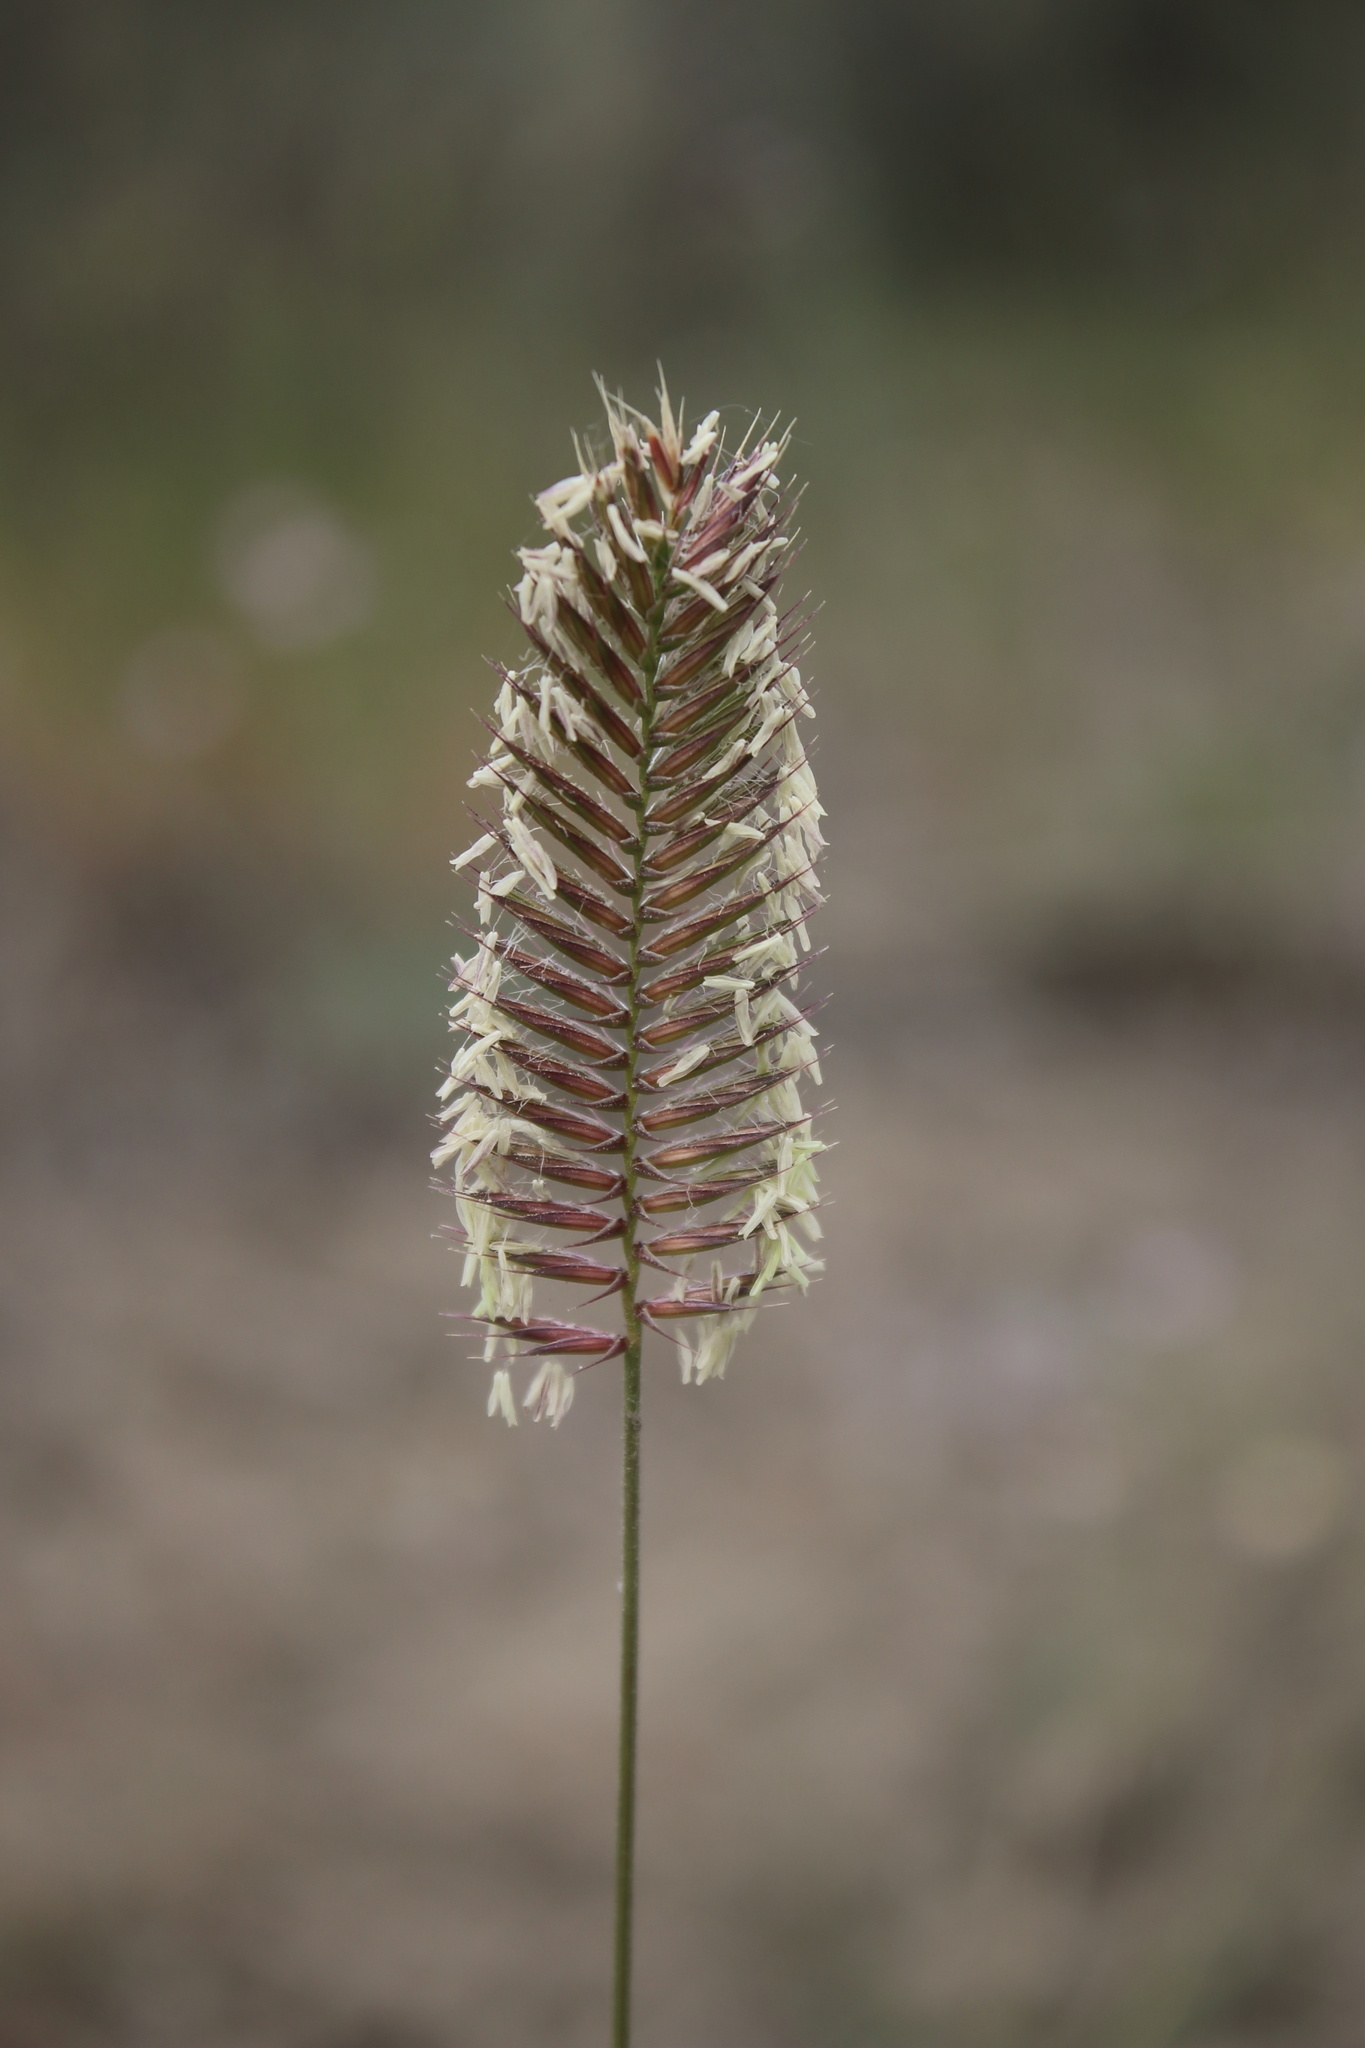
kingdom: Plantae
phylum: Tracheophyta
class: Liliopsida
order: Poales
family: Poaceae
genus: Agropyron
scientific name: Agropyron cristatum
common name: Crested wheatgrass
